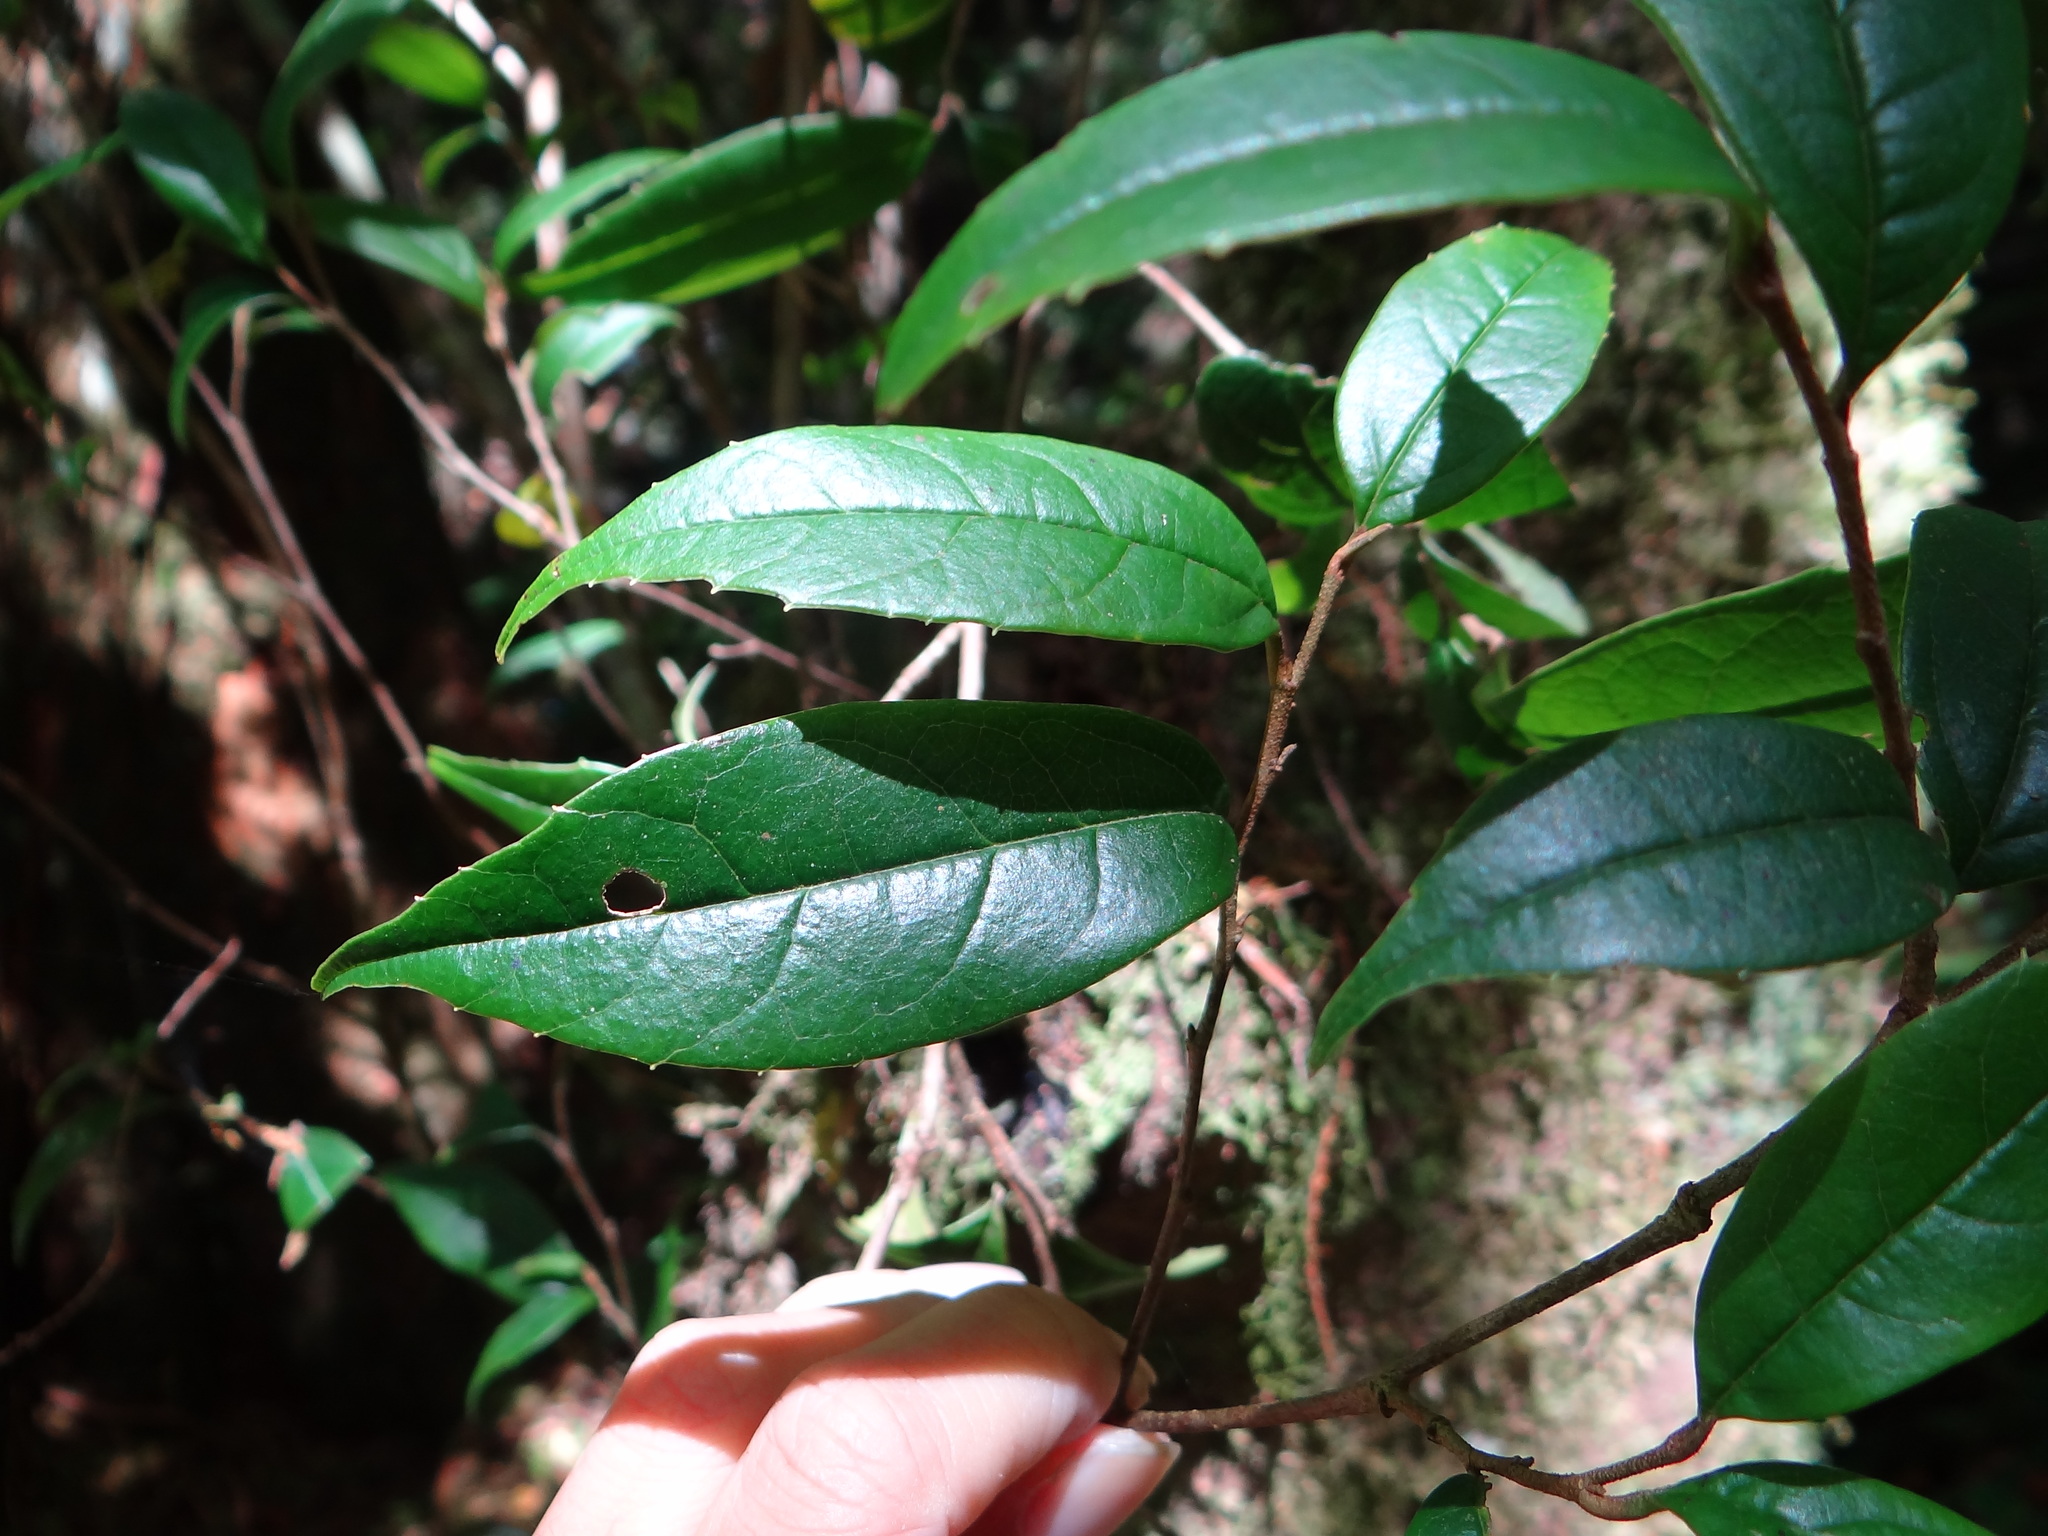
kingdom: Plantae
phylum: Tracheophyta
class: Magnoliopsida
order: Saxifragales
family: Hamamelidaceae
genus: Sycopsis
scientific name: Sycopsis sinensis
